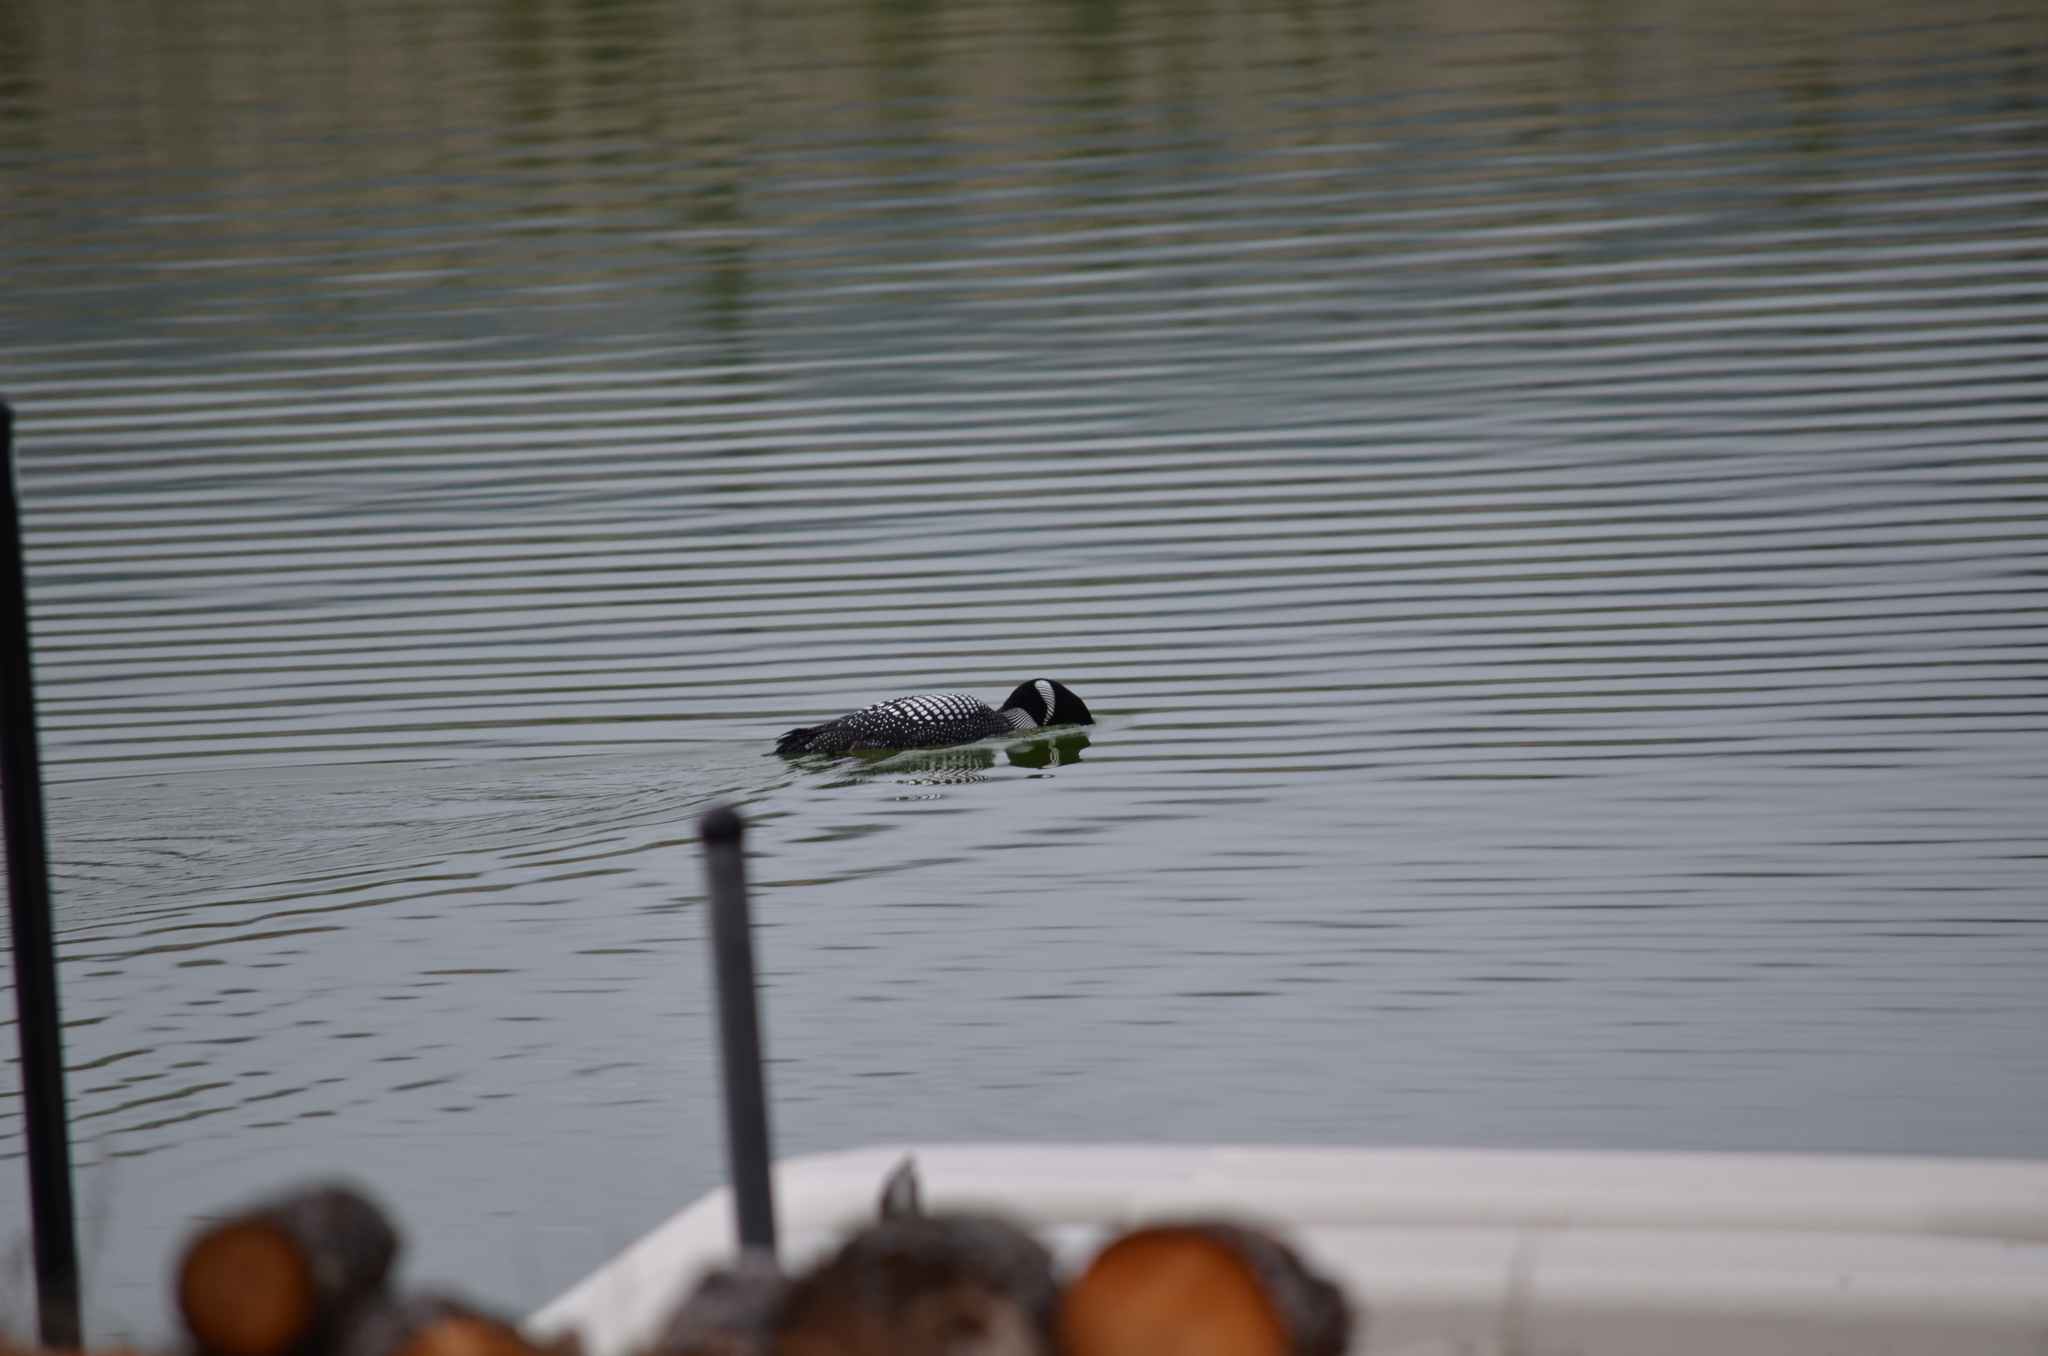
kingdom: Animalia
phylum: Chordata
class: Aves
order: Gaviiformes
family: Gaviidae
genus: Gavia
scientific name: Gavia immer
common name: Common loon
